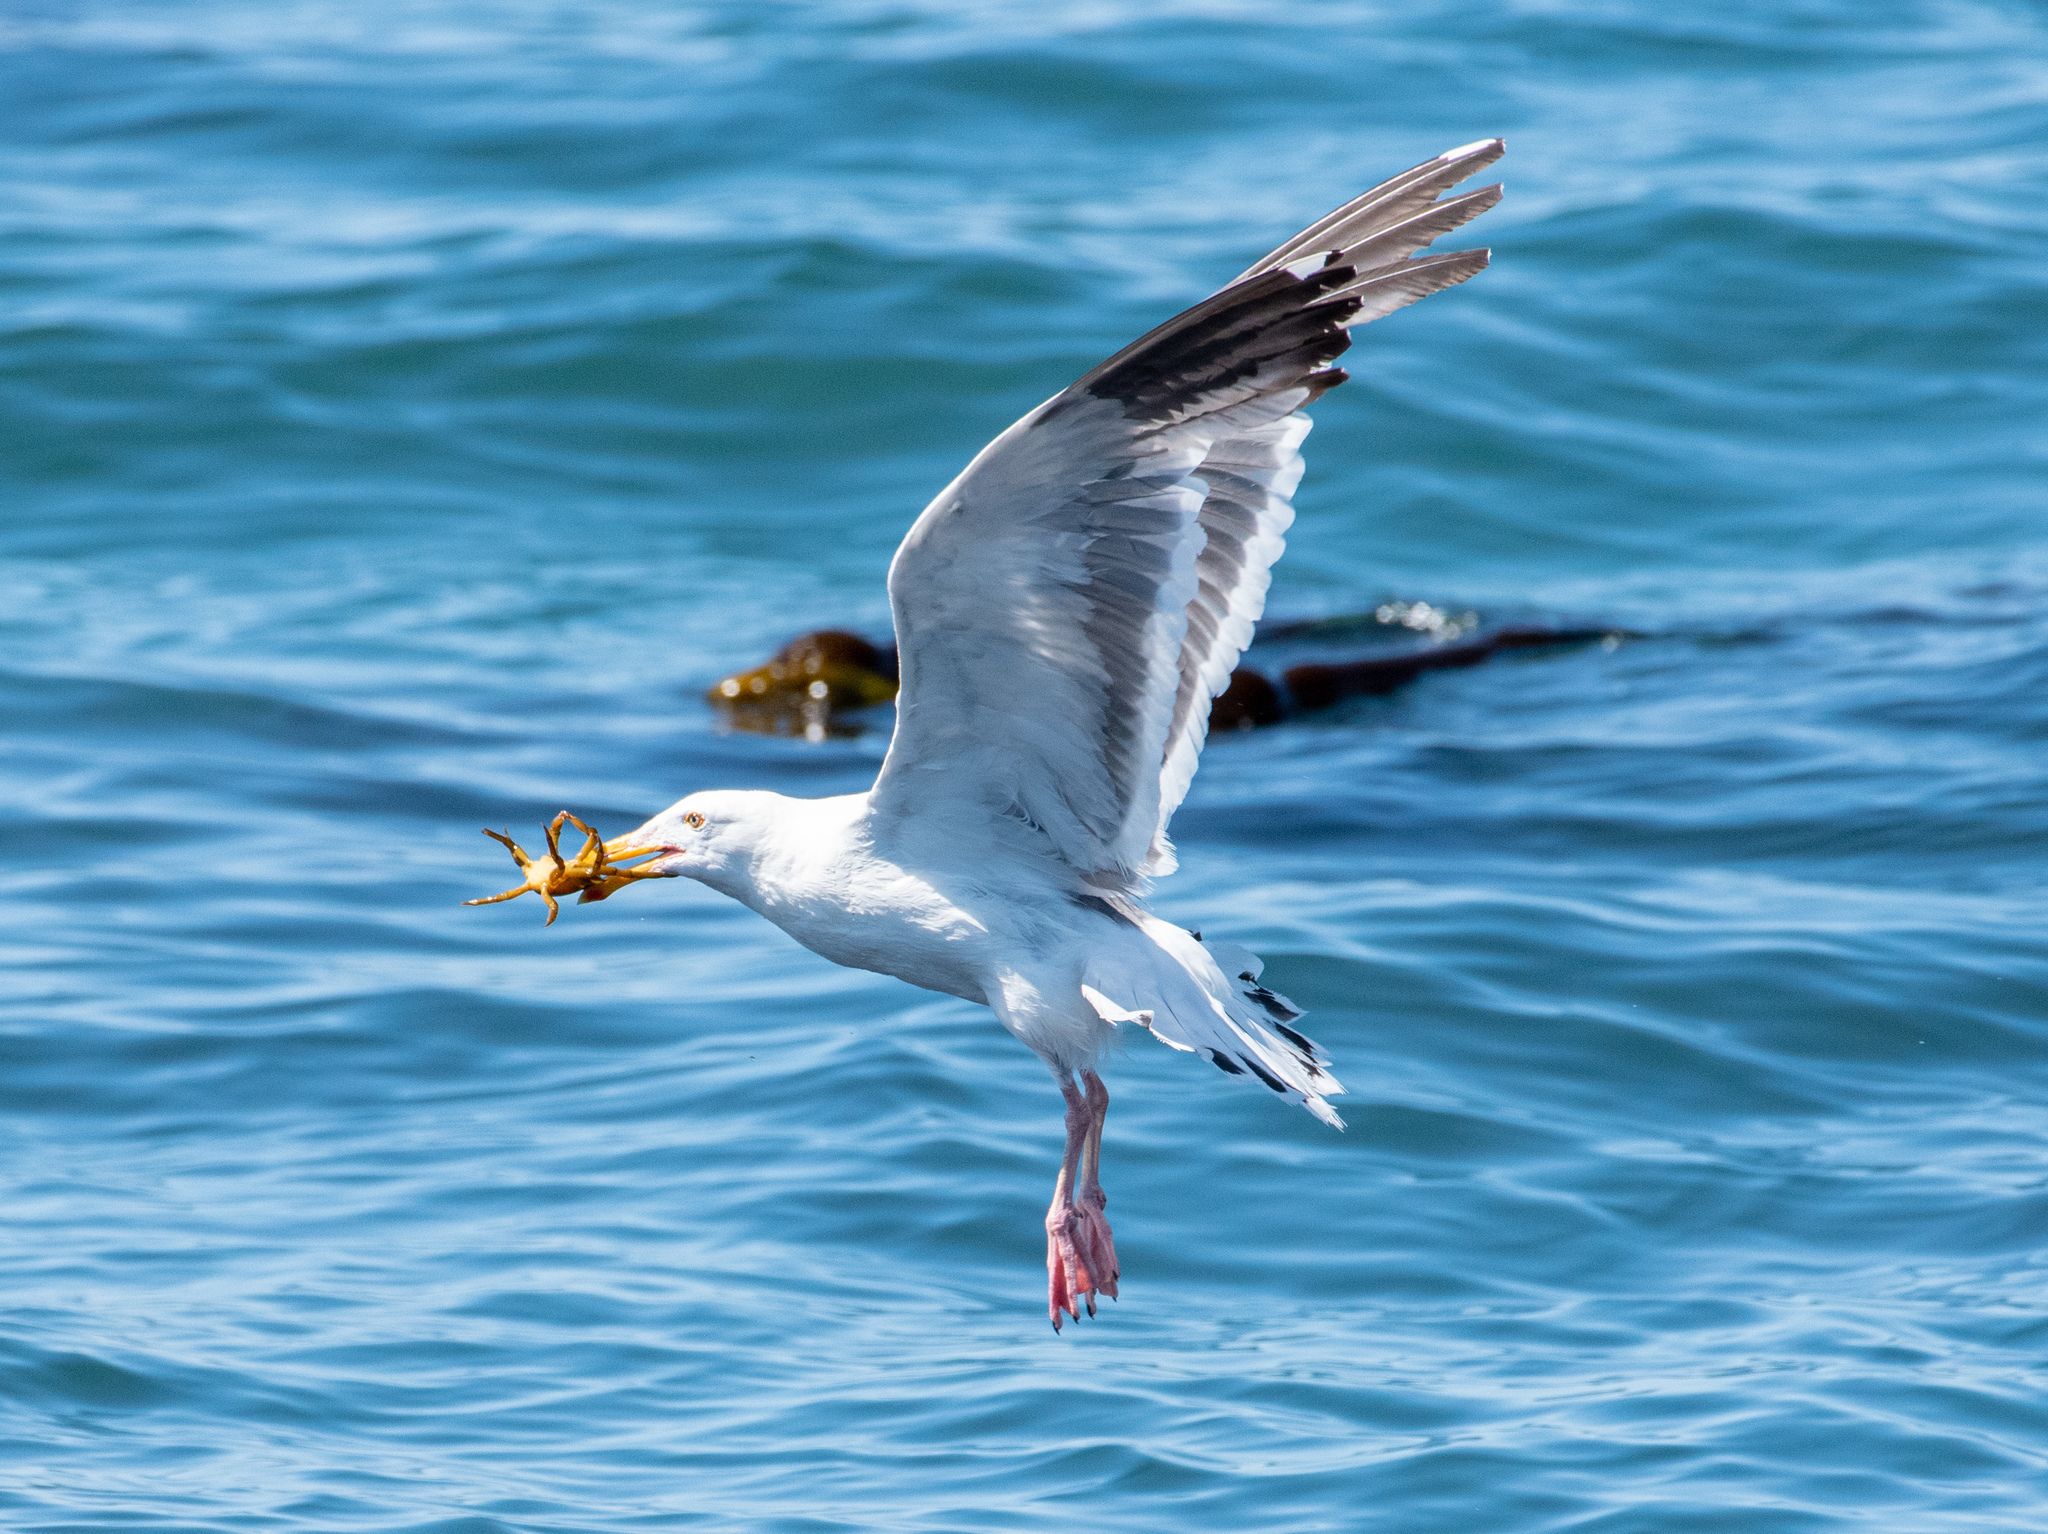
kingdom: Animalia
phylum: Chordata
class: Aves
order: Charadriiformes
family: Laridae
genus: Larus
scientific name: Larus occidentalis
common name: Western gull
